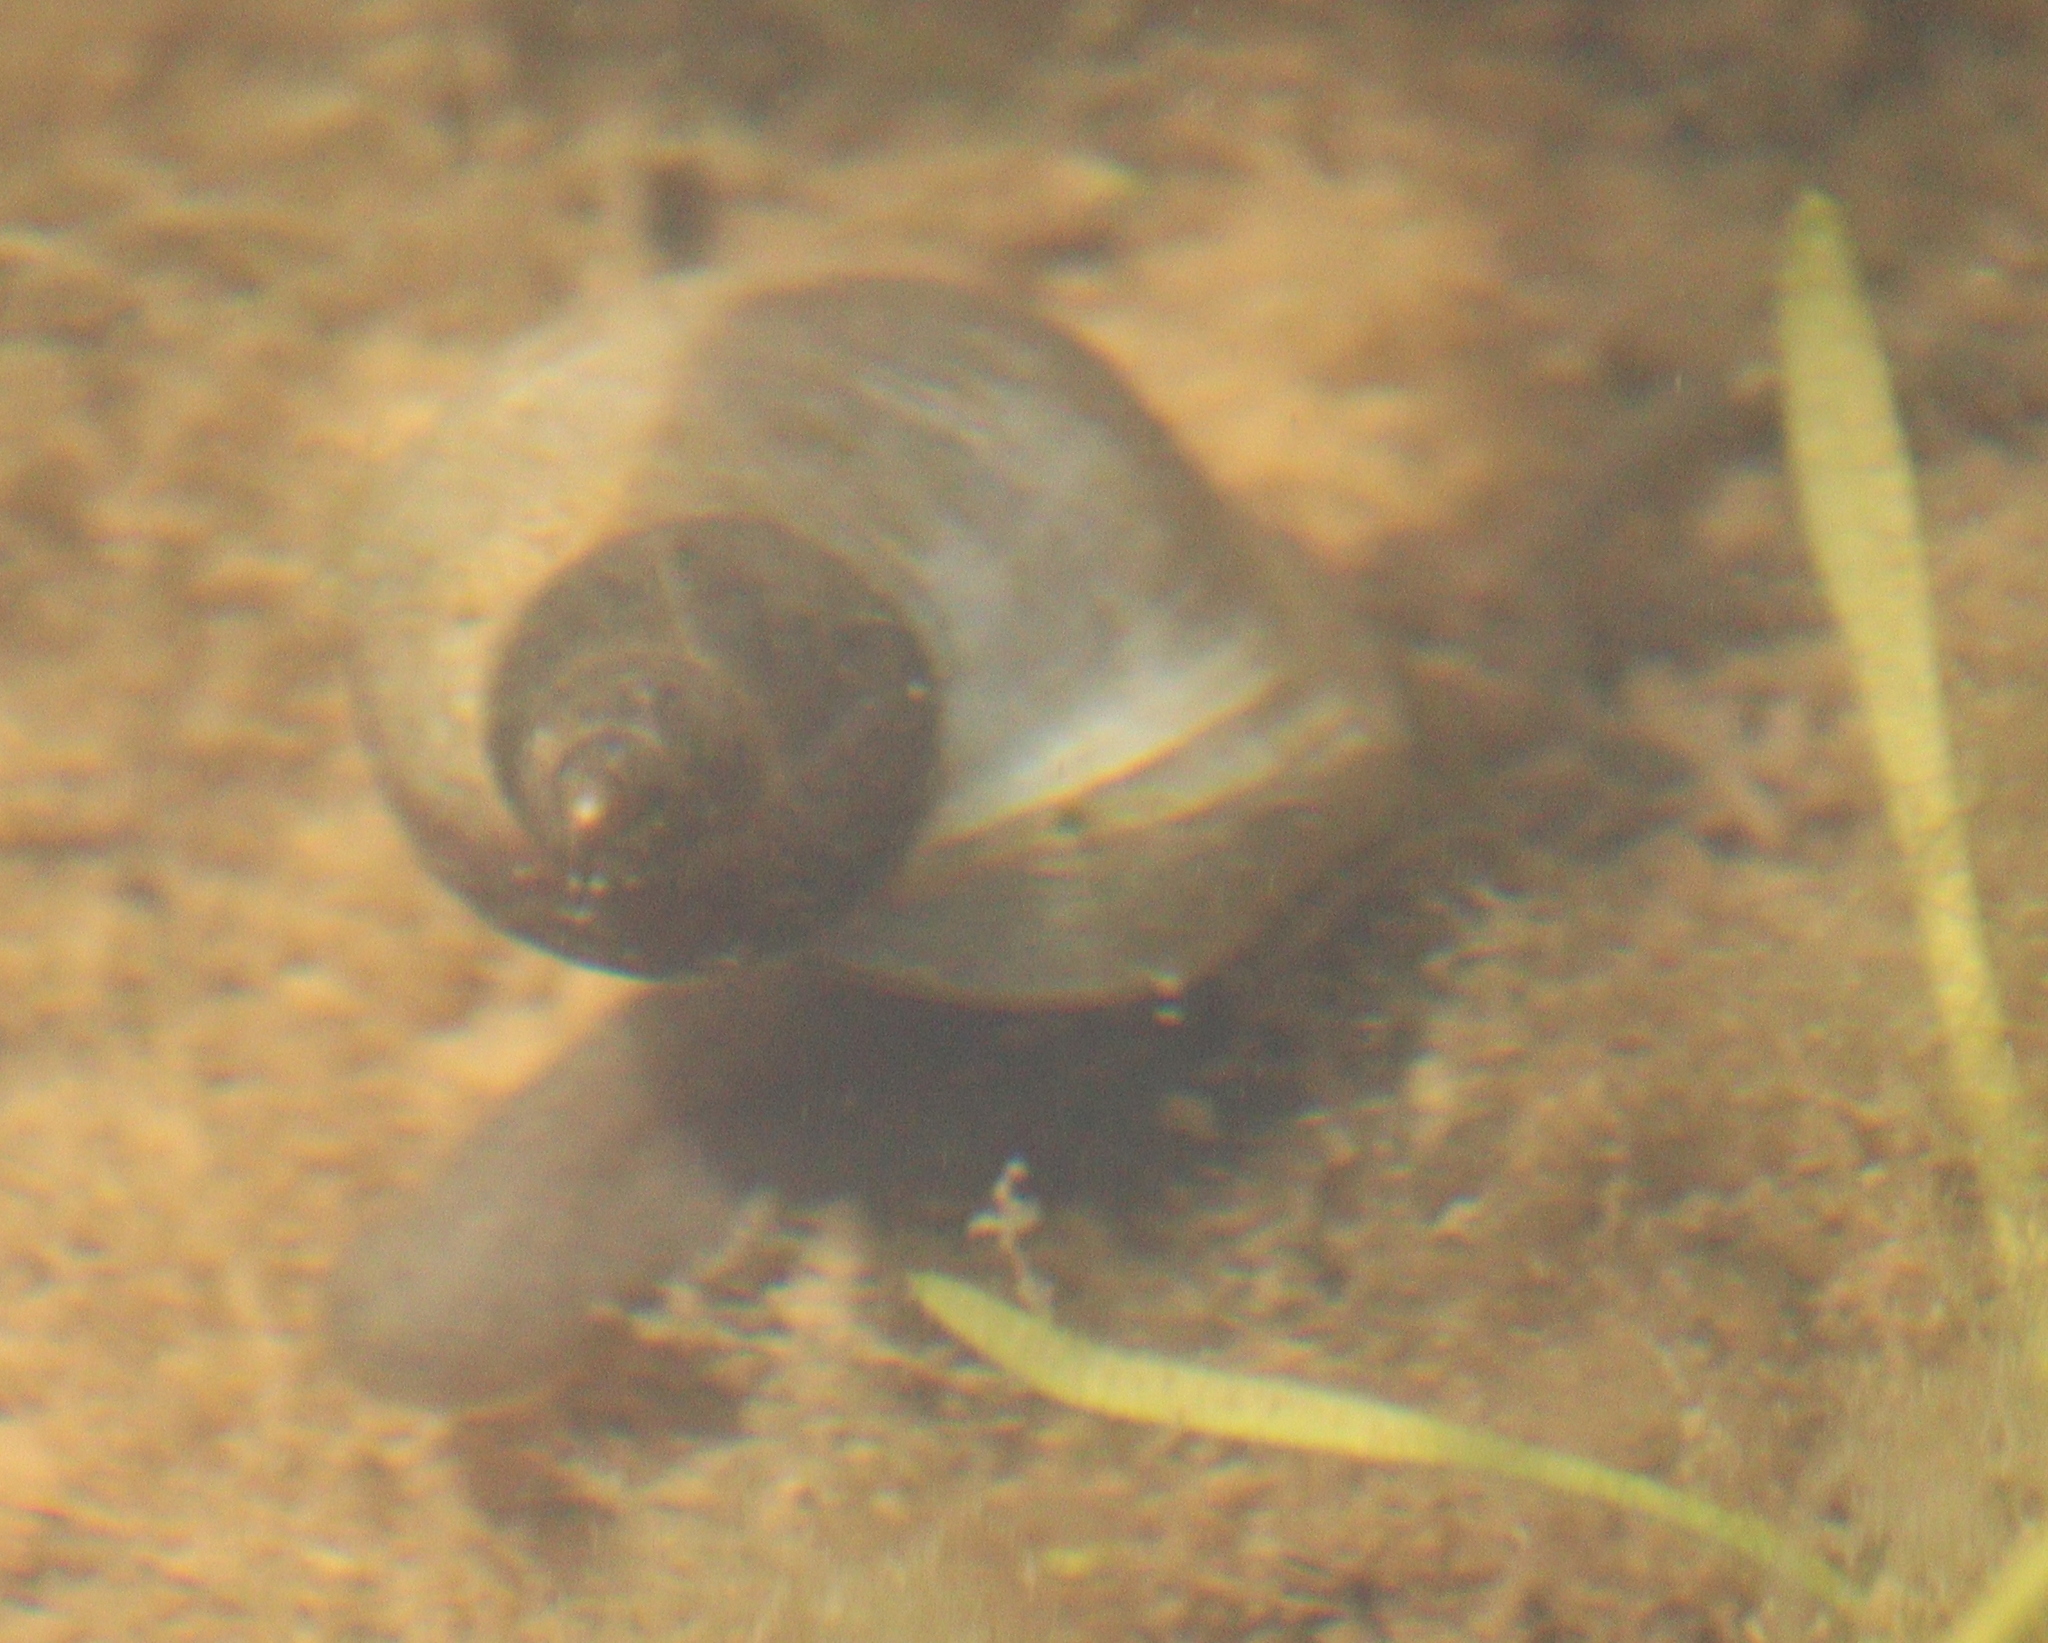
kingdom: Animalia
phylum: Mollusca
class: Gastropoda
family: Lymnaeidae
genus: Lymnaea
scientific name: Lymnaea stagnalis
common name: Great pond snail
